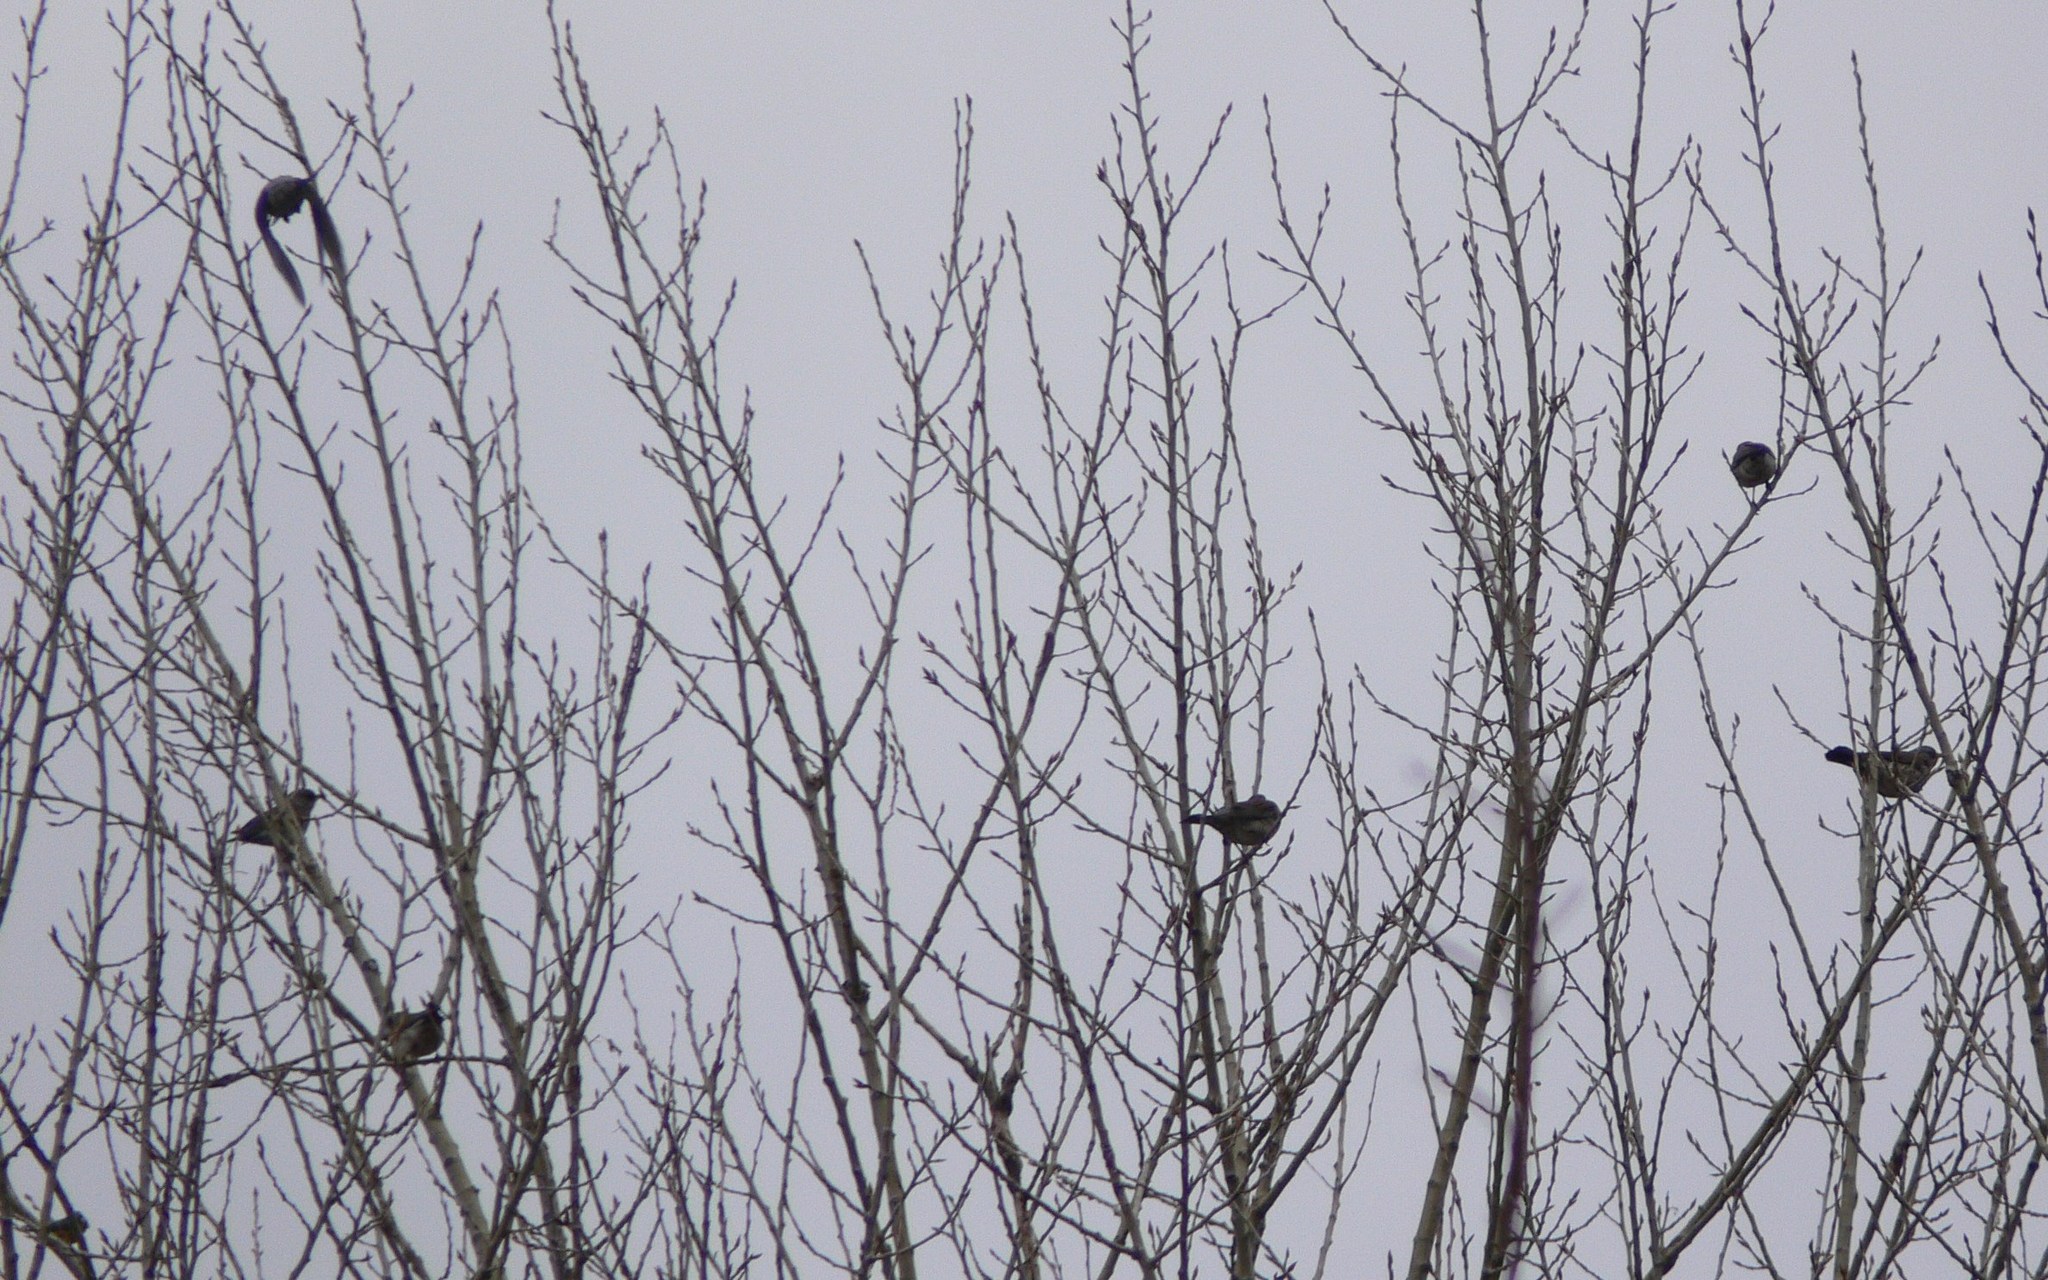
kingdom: Animalia
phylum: Chordata
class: Aves
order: Passeriformes
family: Turdidae
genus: Turdus
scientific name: Turdus pilaris
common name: Fieldfare
